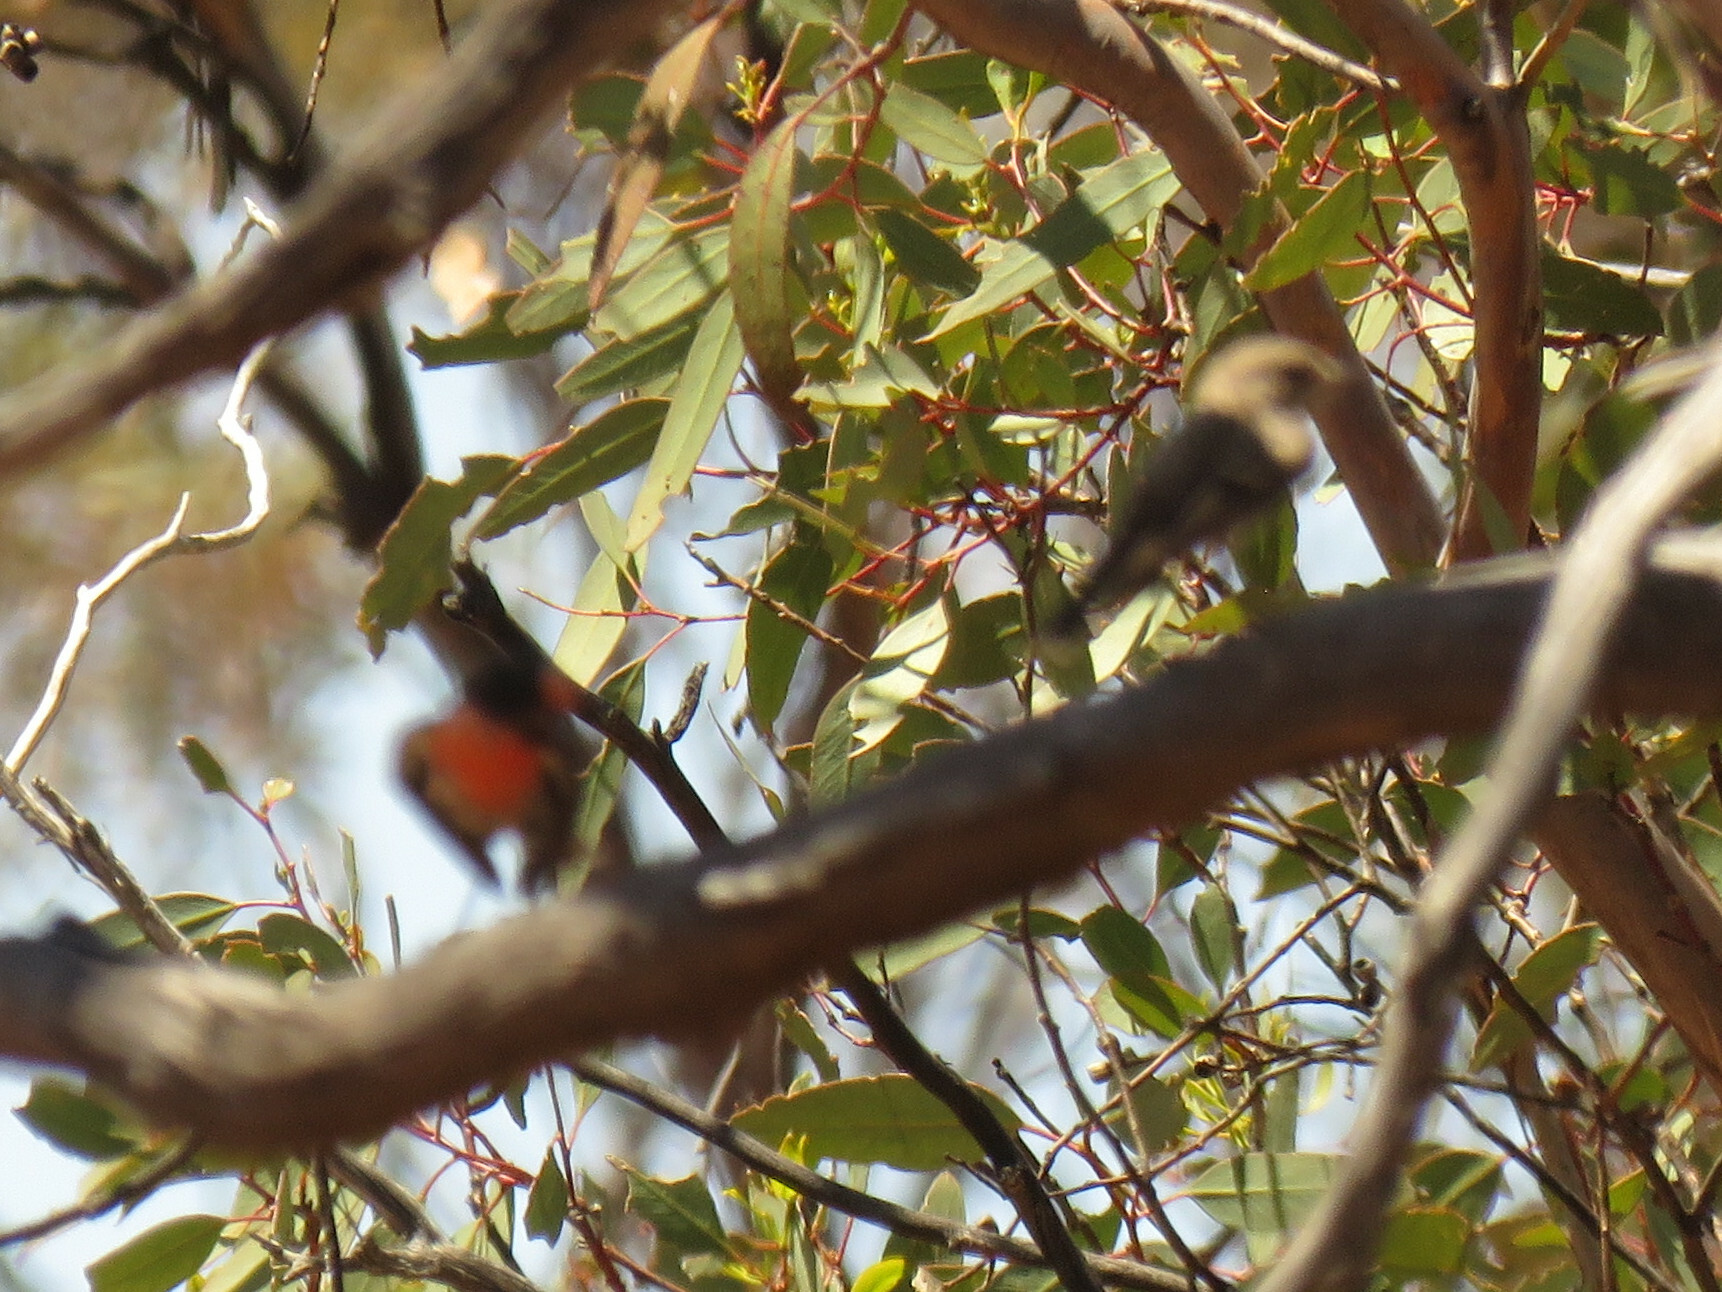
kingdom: Animalia
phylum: Chordata
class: Aves
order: Passeriformes
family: Petroicidae
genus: Petroica
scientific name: Petroica goodenovii
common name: Red-capped robin
